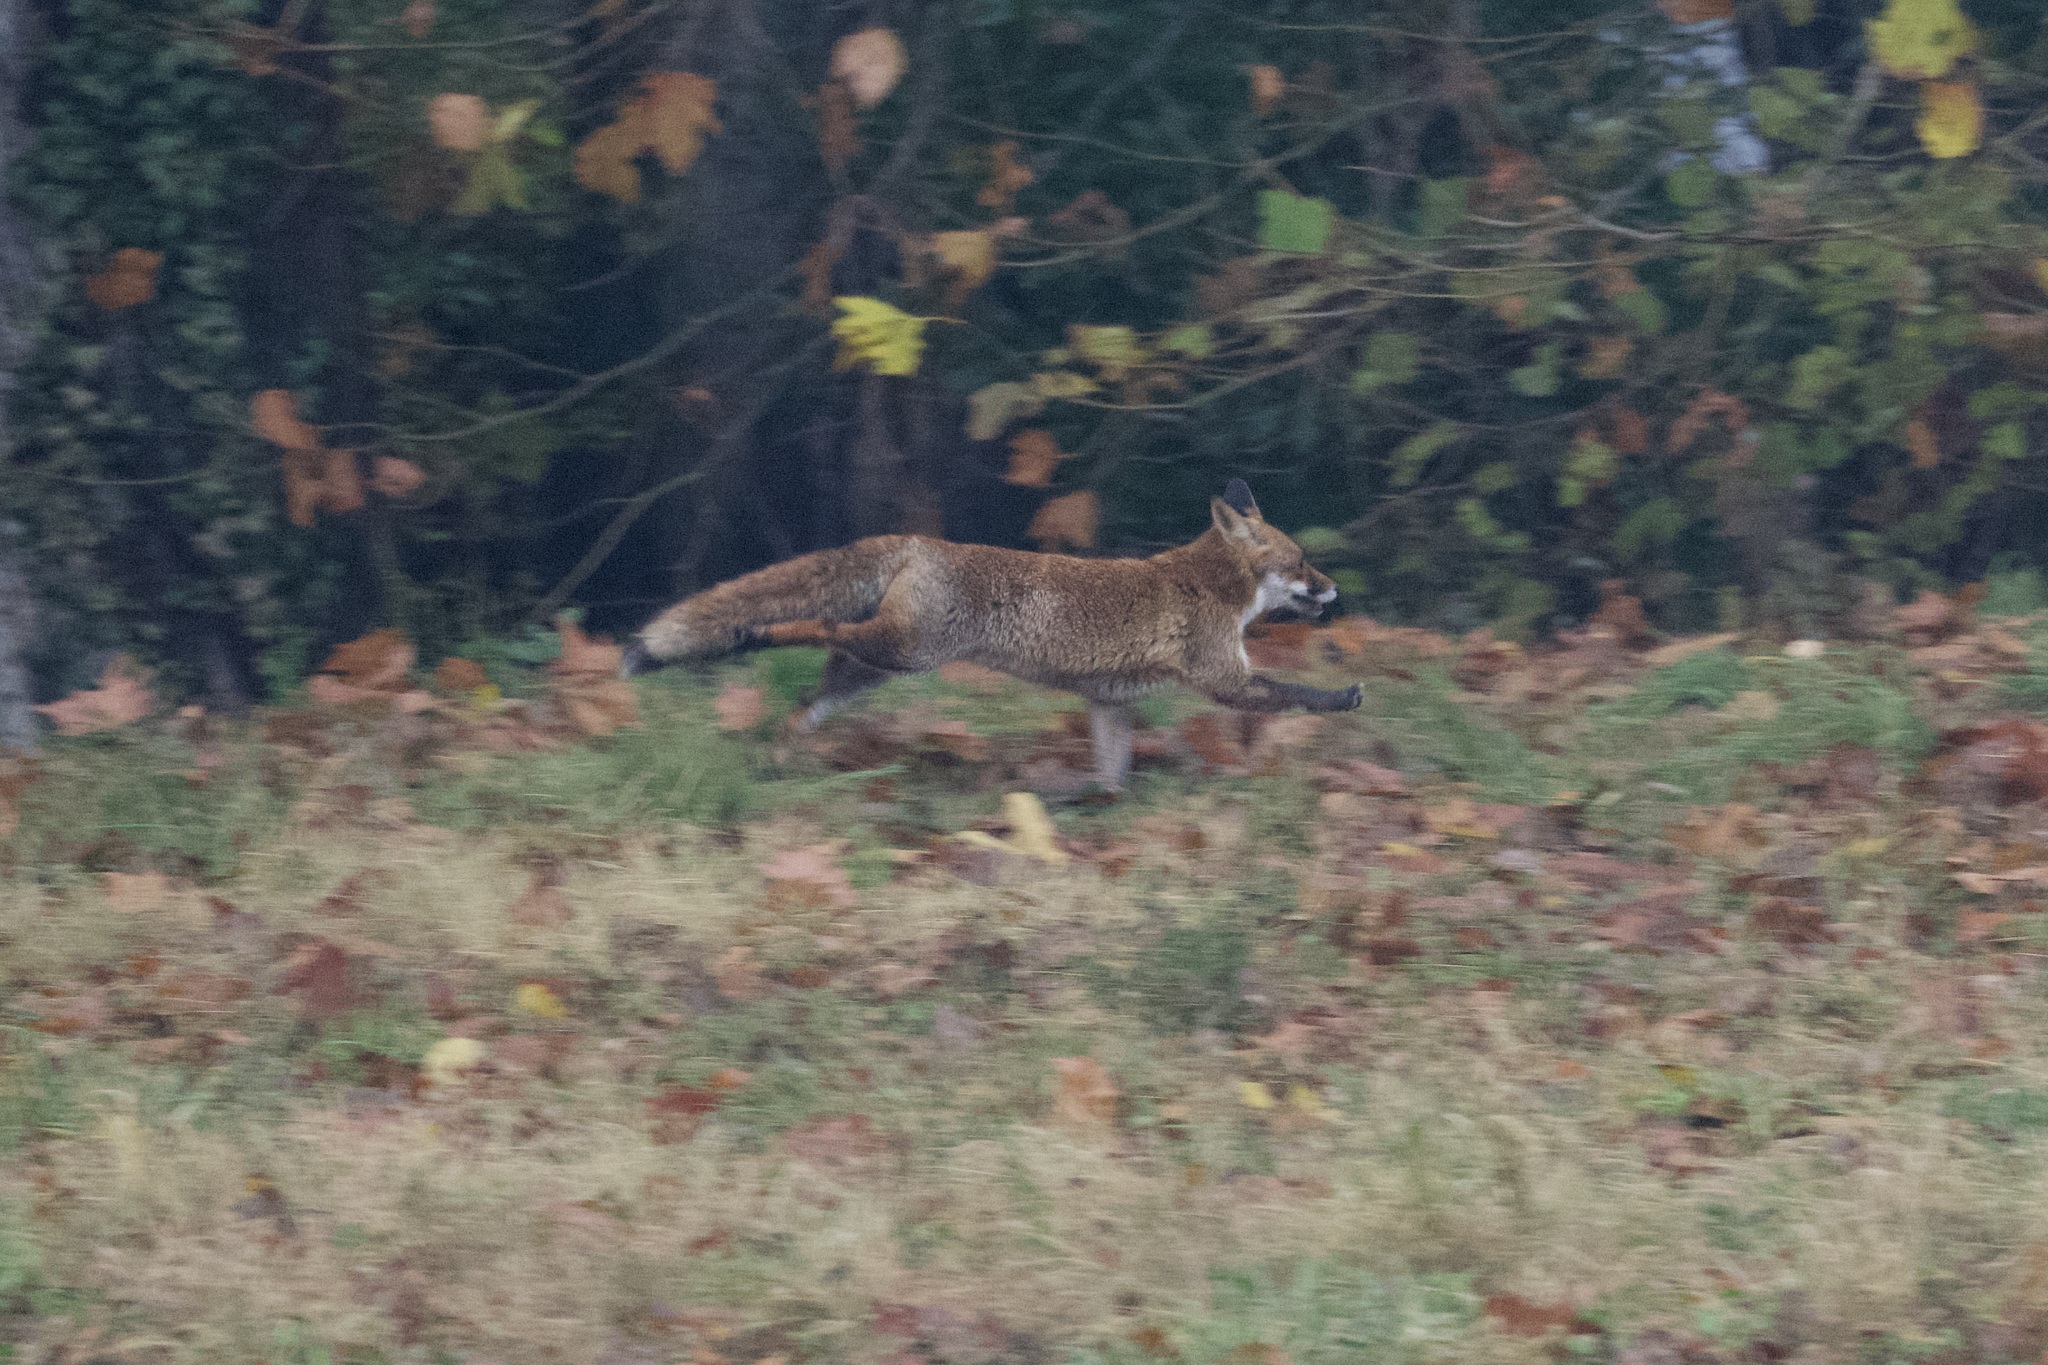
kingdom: Animalia
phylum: Chordata
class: Mammalia
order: Carnivora
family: Canidae
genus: Vulpes
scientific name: Vulpes vulpes
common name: Red fox
